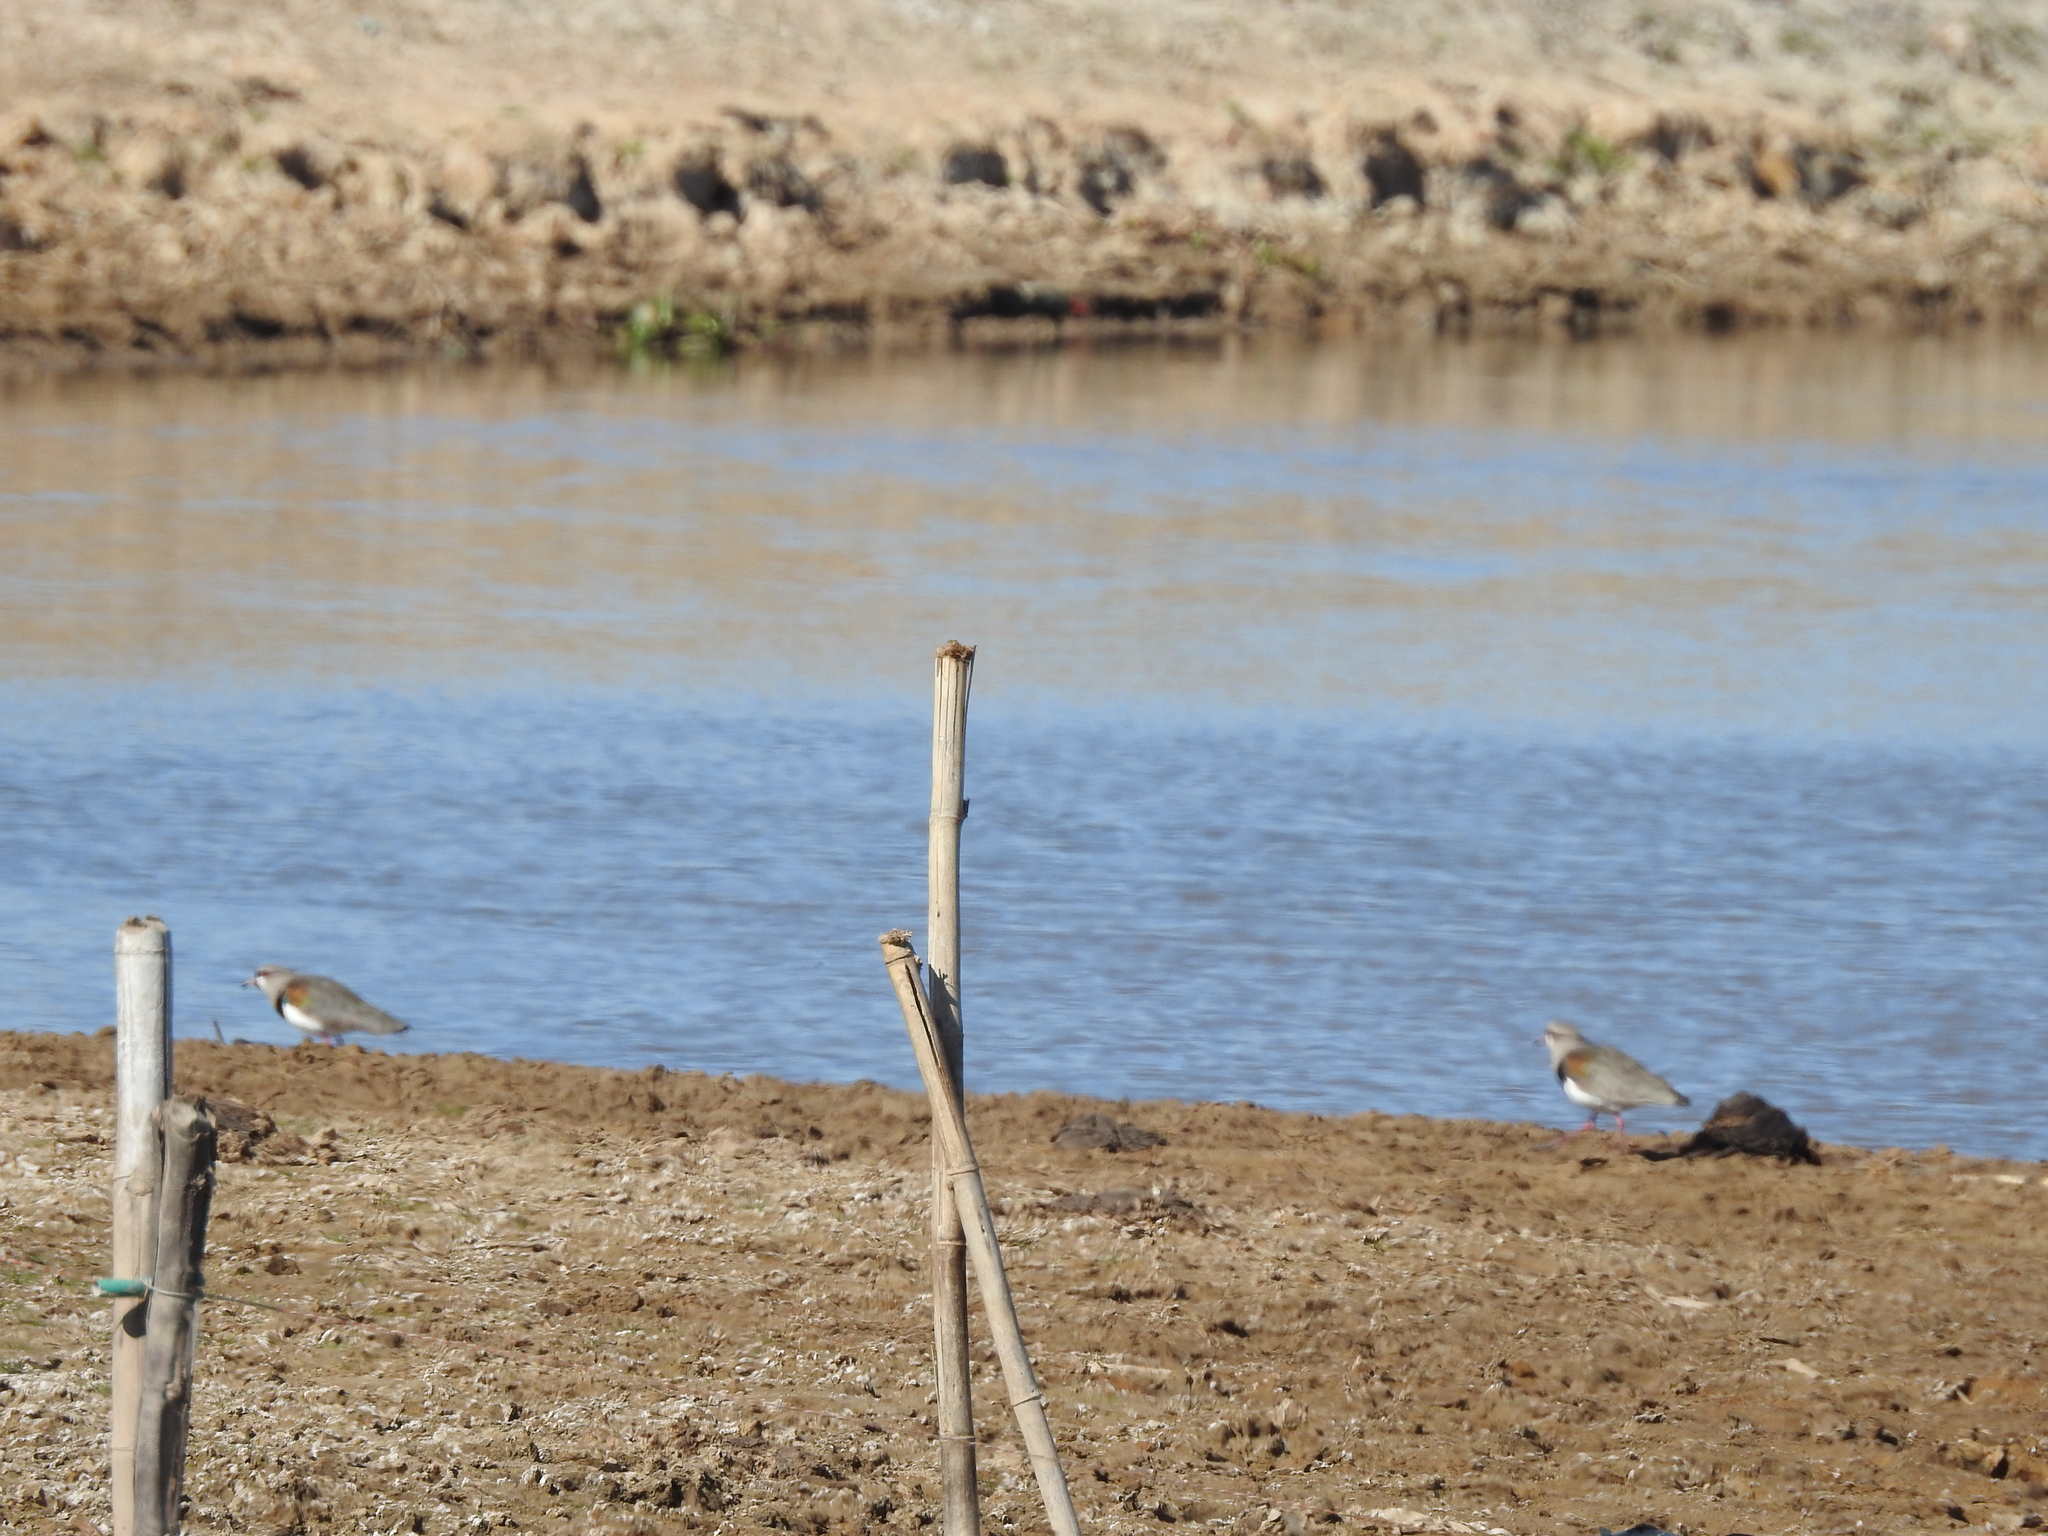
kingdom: Animalia
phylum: Chordata
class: Aves
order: Charadriiformes
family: Charadriidae
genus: Vanellus
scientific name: Vanellus chilensis
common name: Southern lapwing
